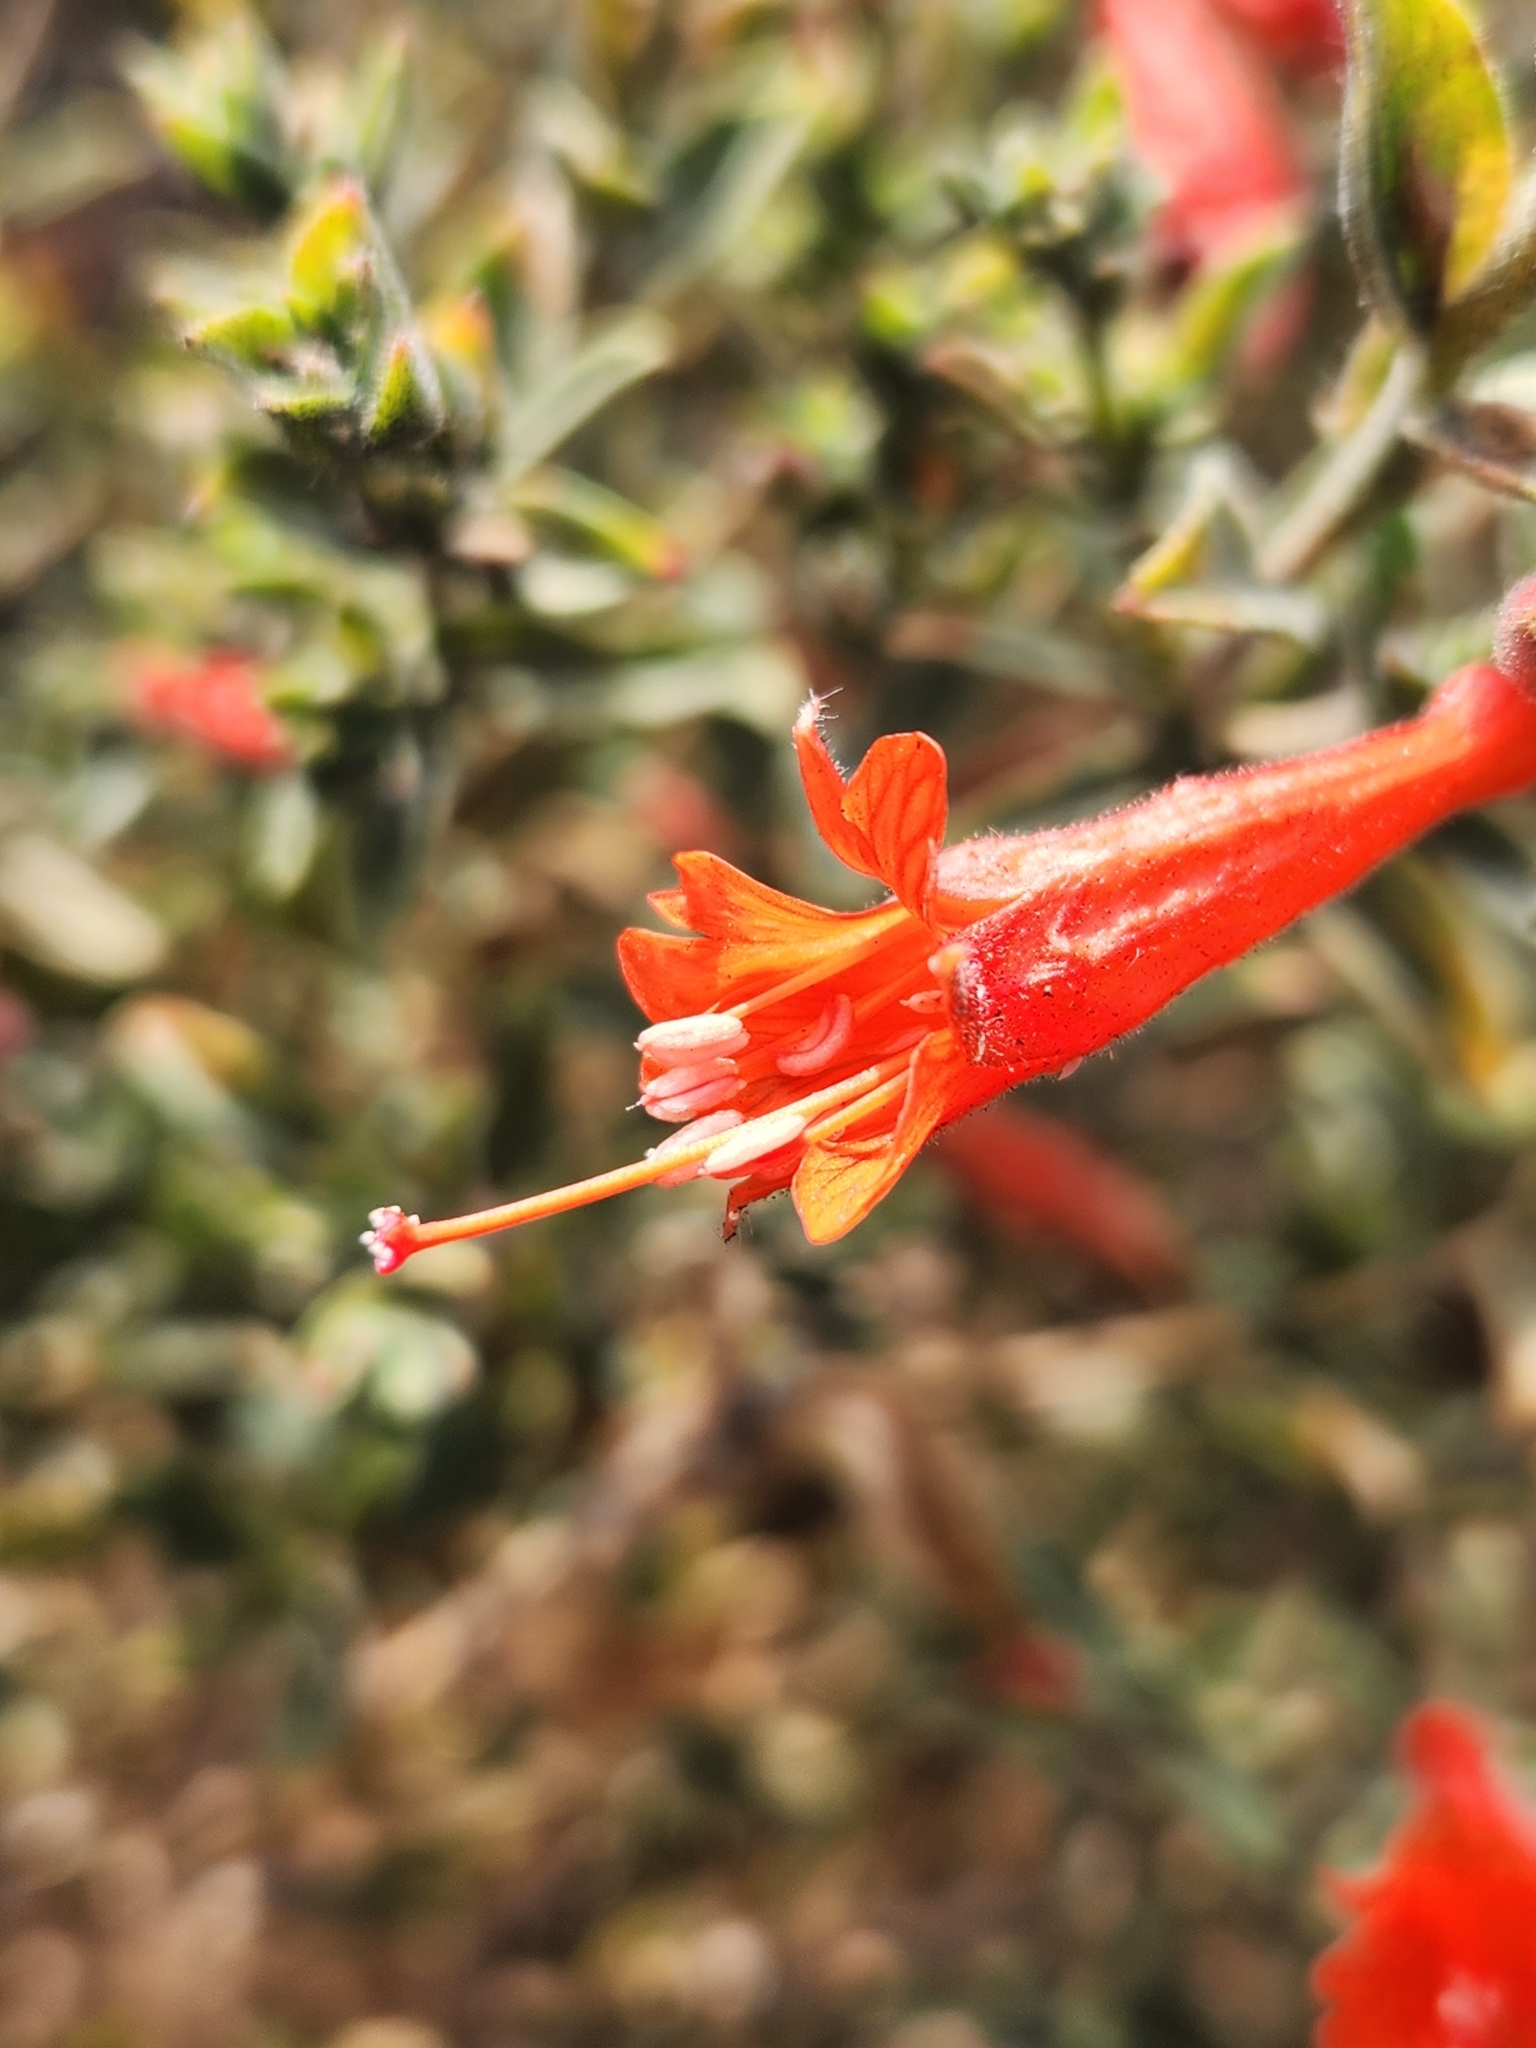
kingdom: Plantae
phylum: Tracheophyta
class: Magnoliopsida
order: Myrtales
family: Onagraceae
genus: Epilobium
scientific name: Epilobium canum
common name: California-fuchsia
